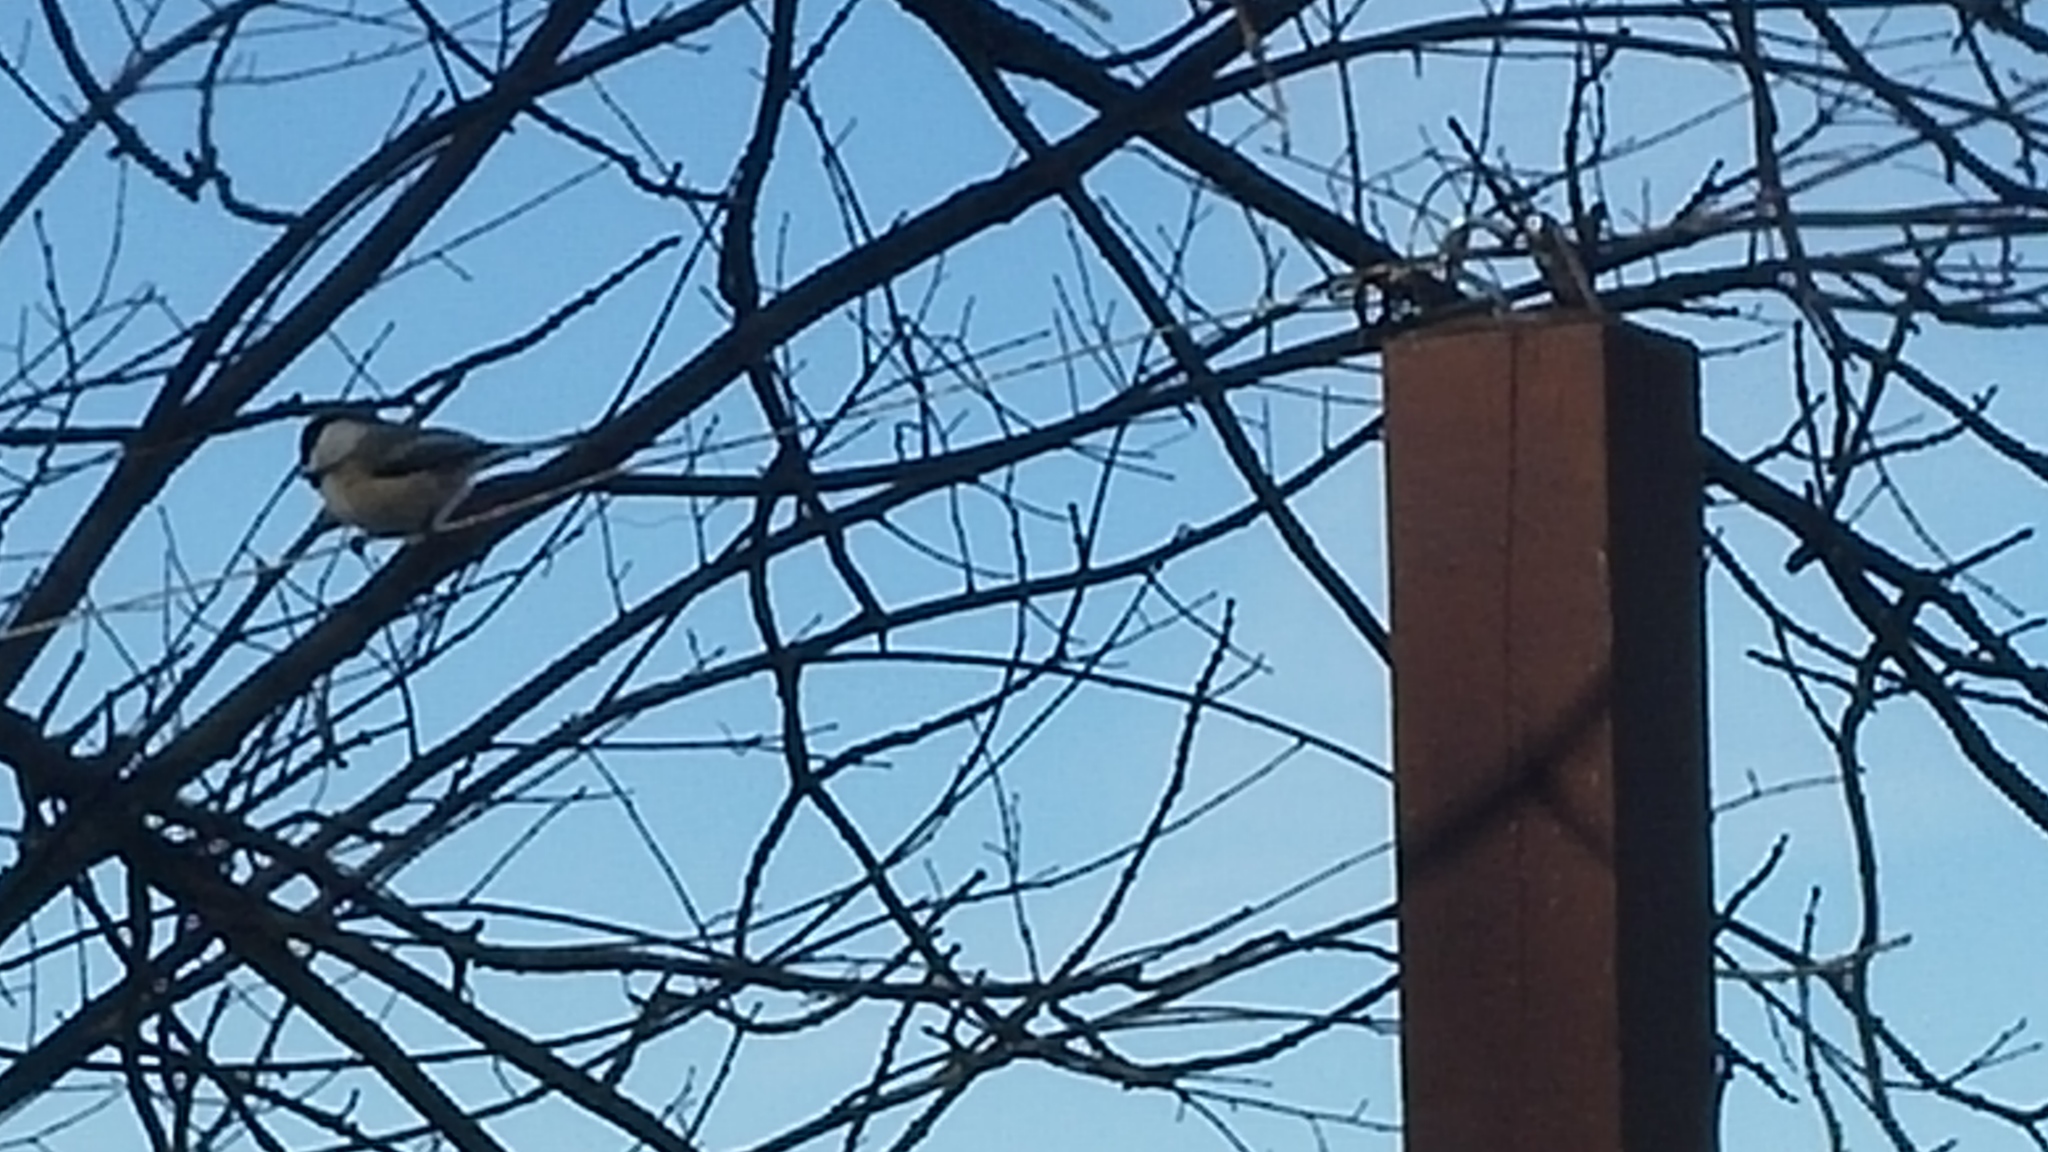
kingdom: Animalia
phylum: Chordata
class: Aves
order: Passeriformes
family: Paridae
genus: Poecile
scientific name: Poecile atricapillus
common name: Black-capped chickadee
